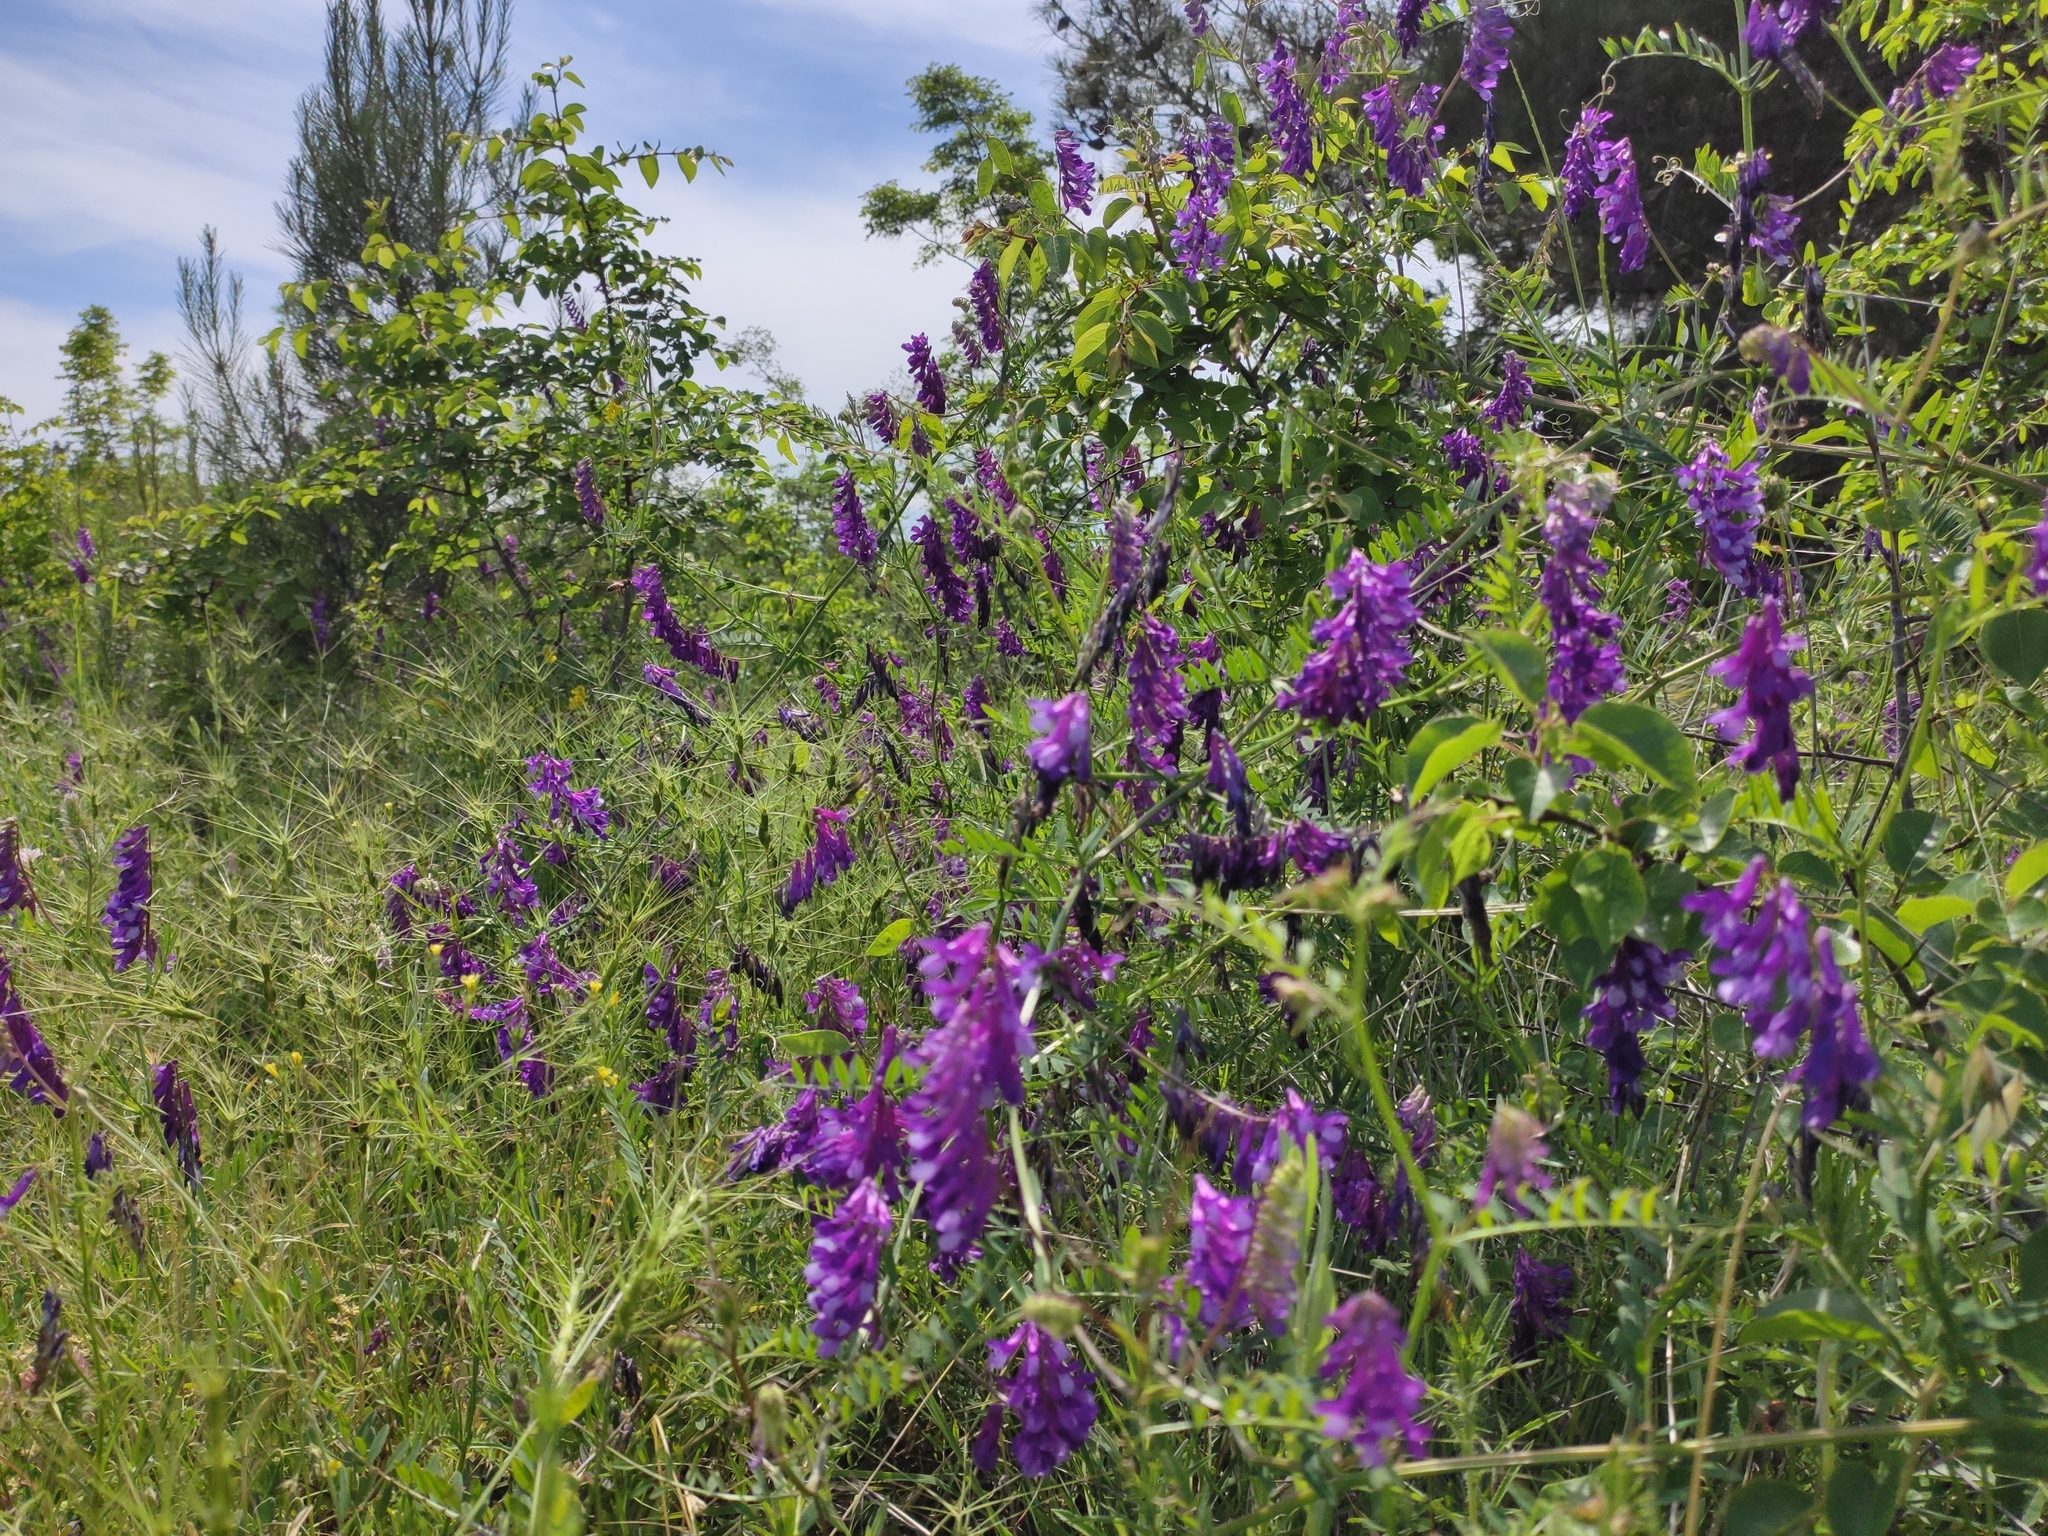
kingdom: Plantae
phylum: Tracheophyta
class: Magnoliopsida
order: Fabales
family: Fabaceae
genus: Vicia
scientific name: Vicia villosa
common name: Fodder vetch
